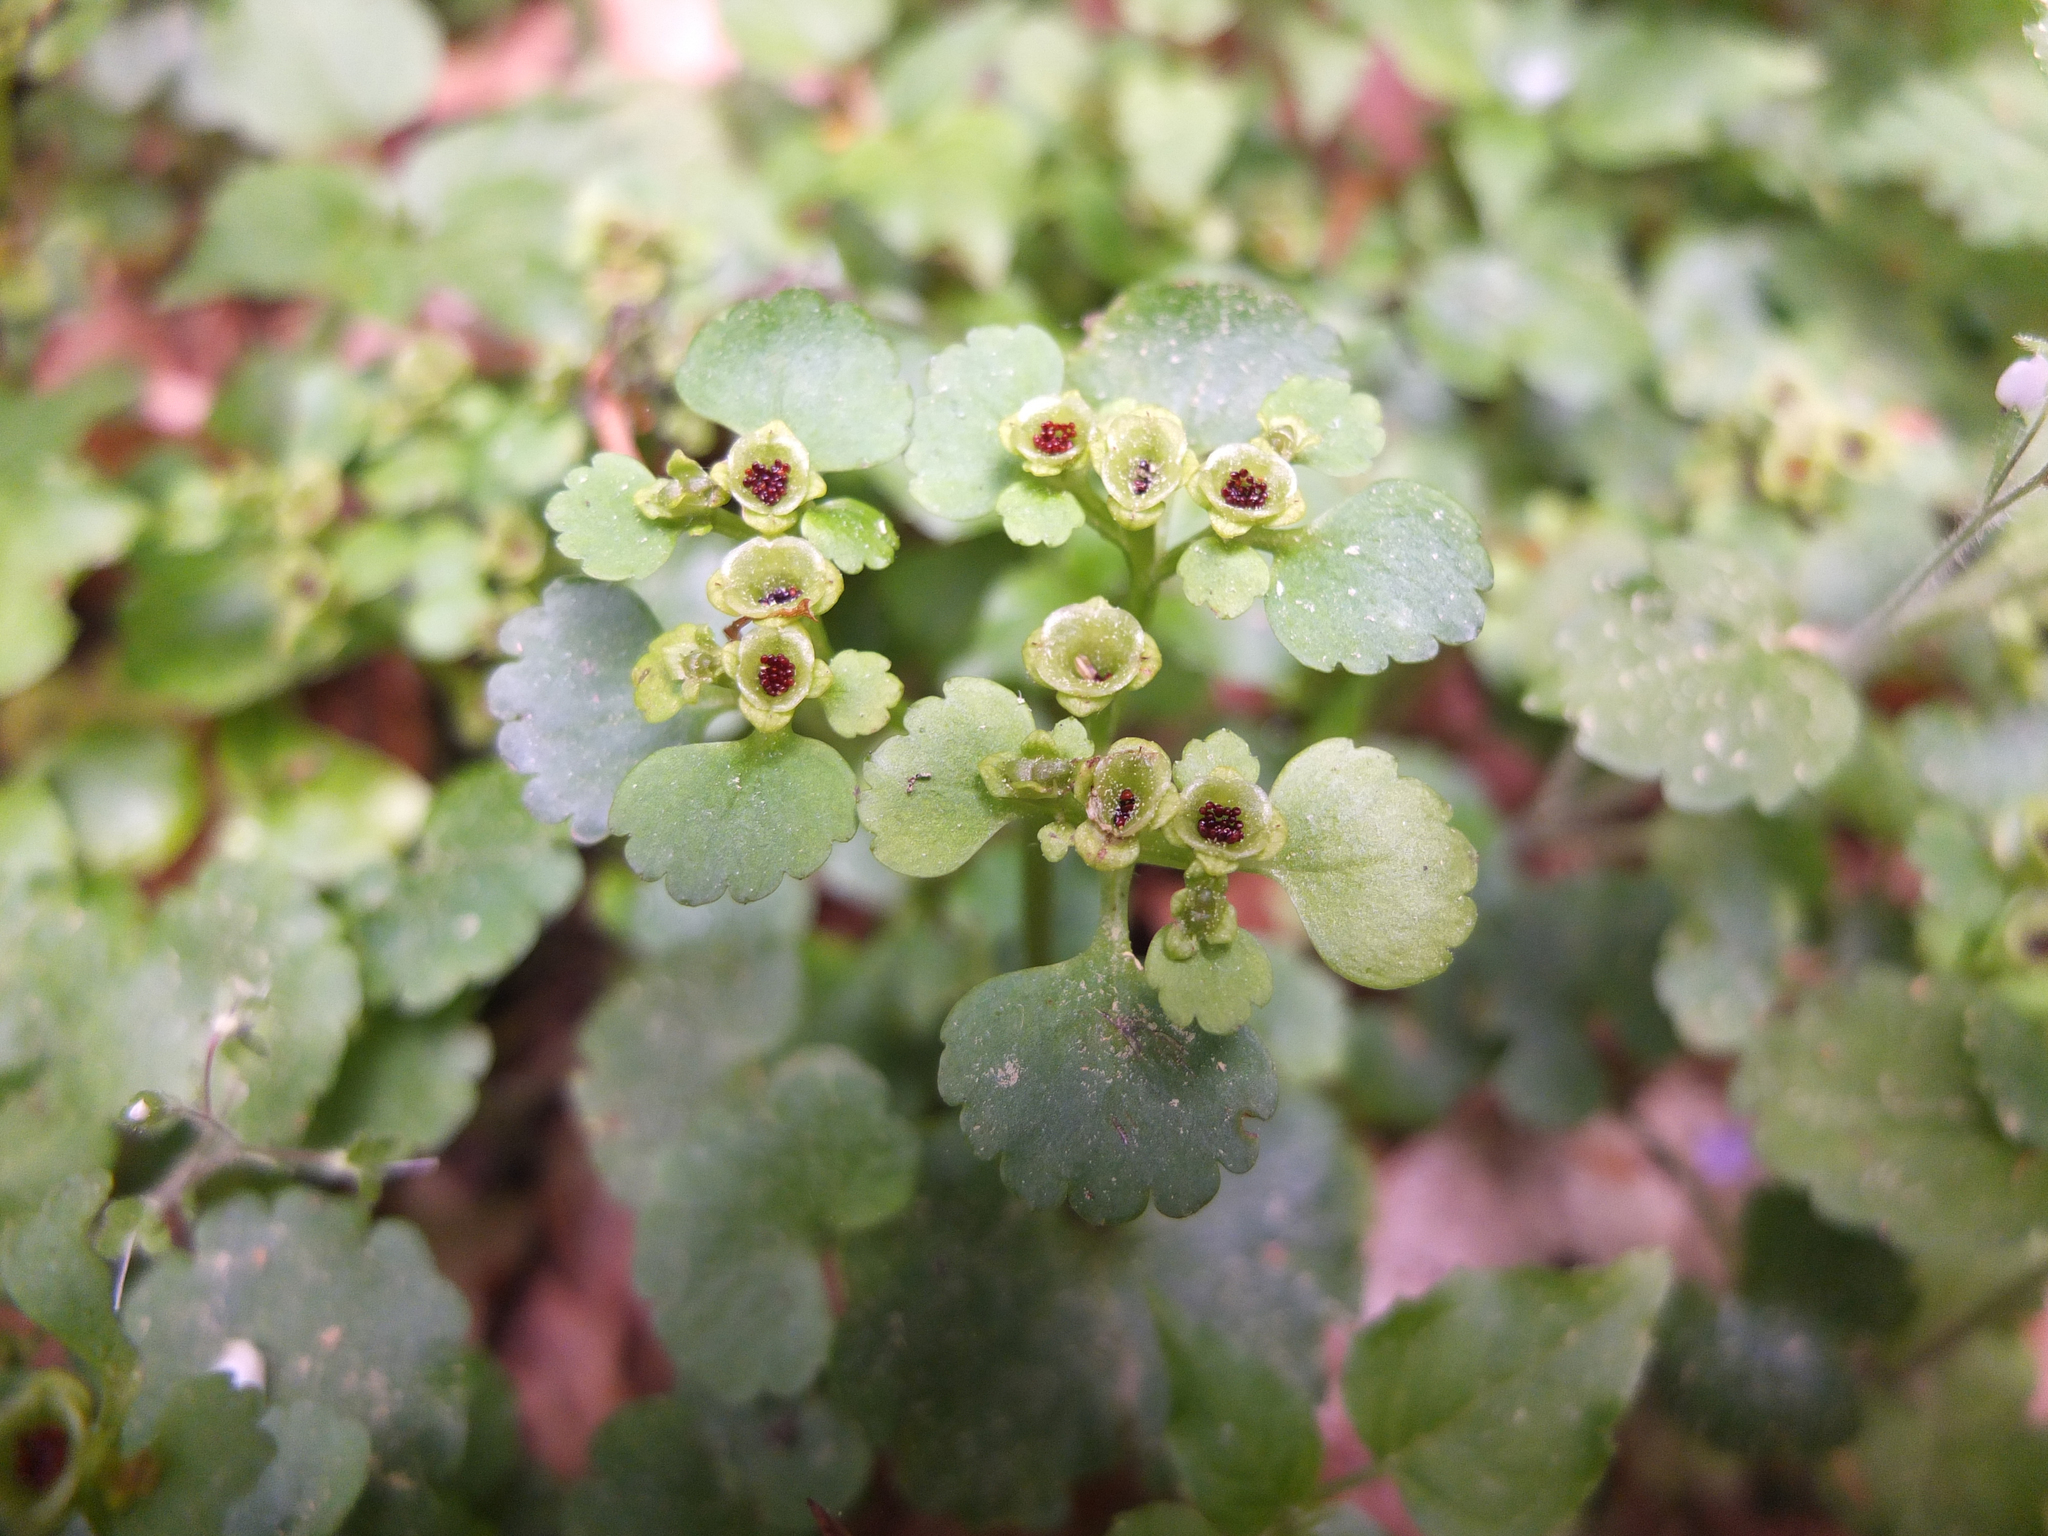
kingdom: Plantae
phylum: Tracheophyta
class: Magnoliopsida
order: Saxifragales
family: Saxifragaceae
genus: Chrysosplenium
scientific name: Chrysosplenium alternifolium
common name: Alternate-leaved golden-saxifrage
